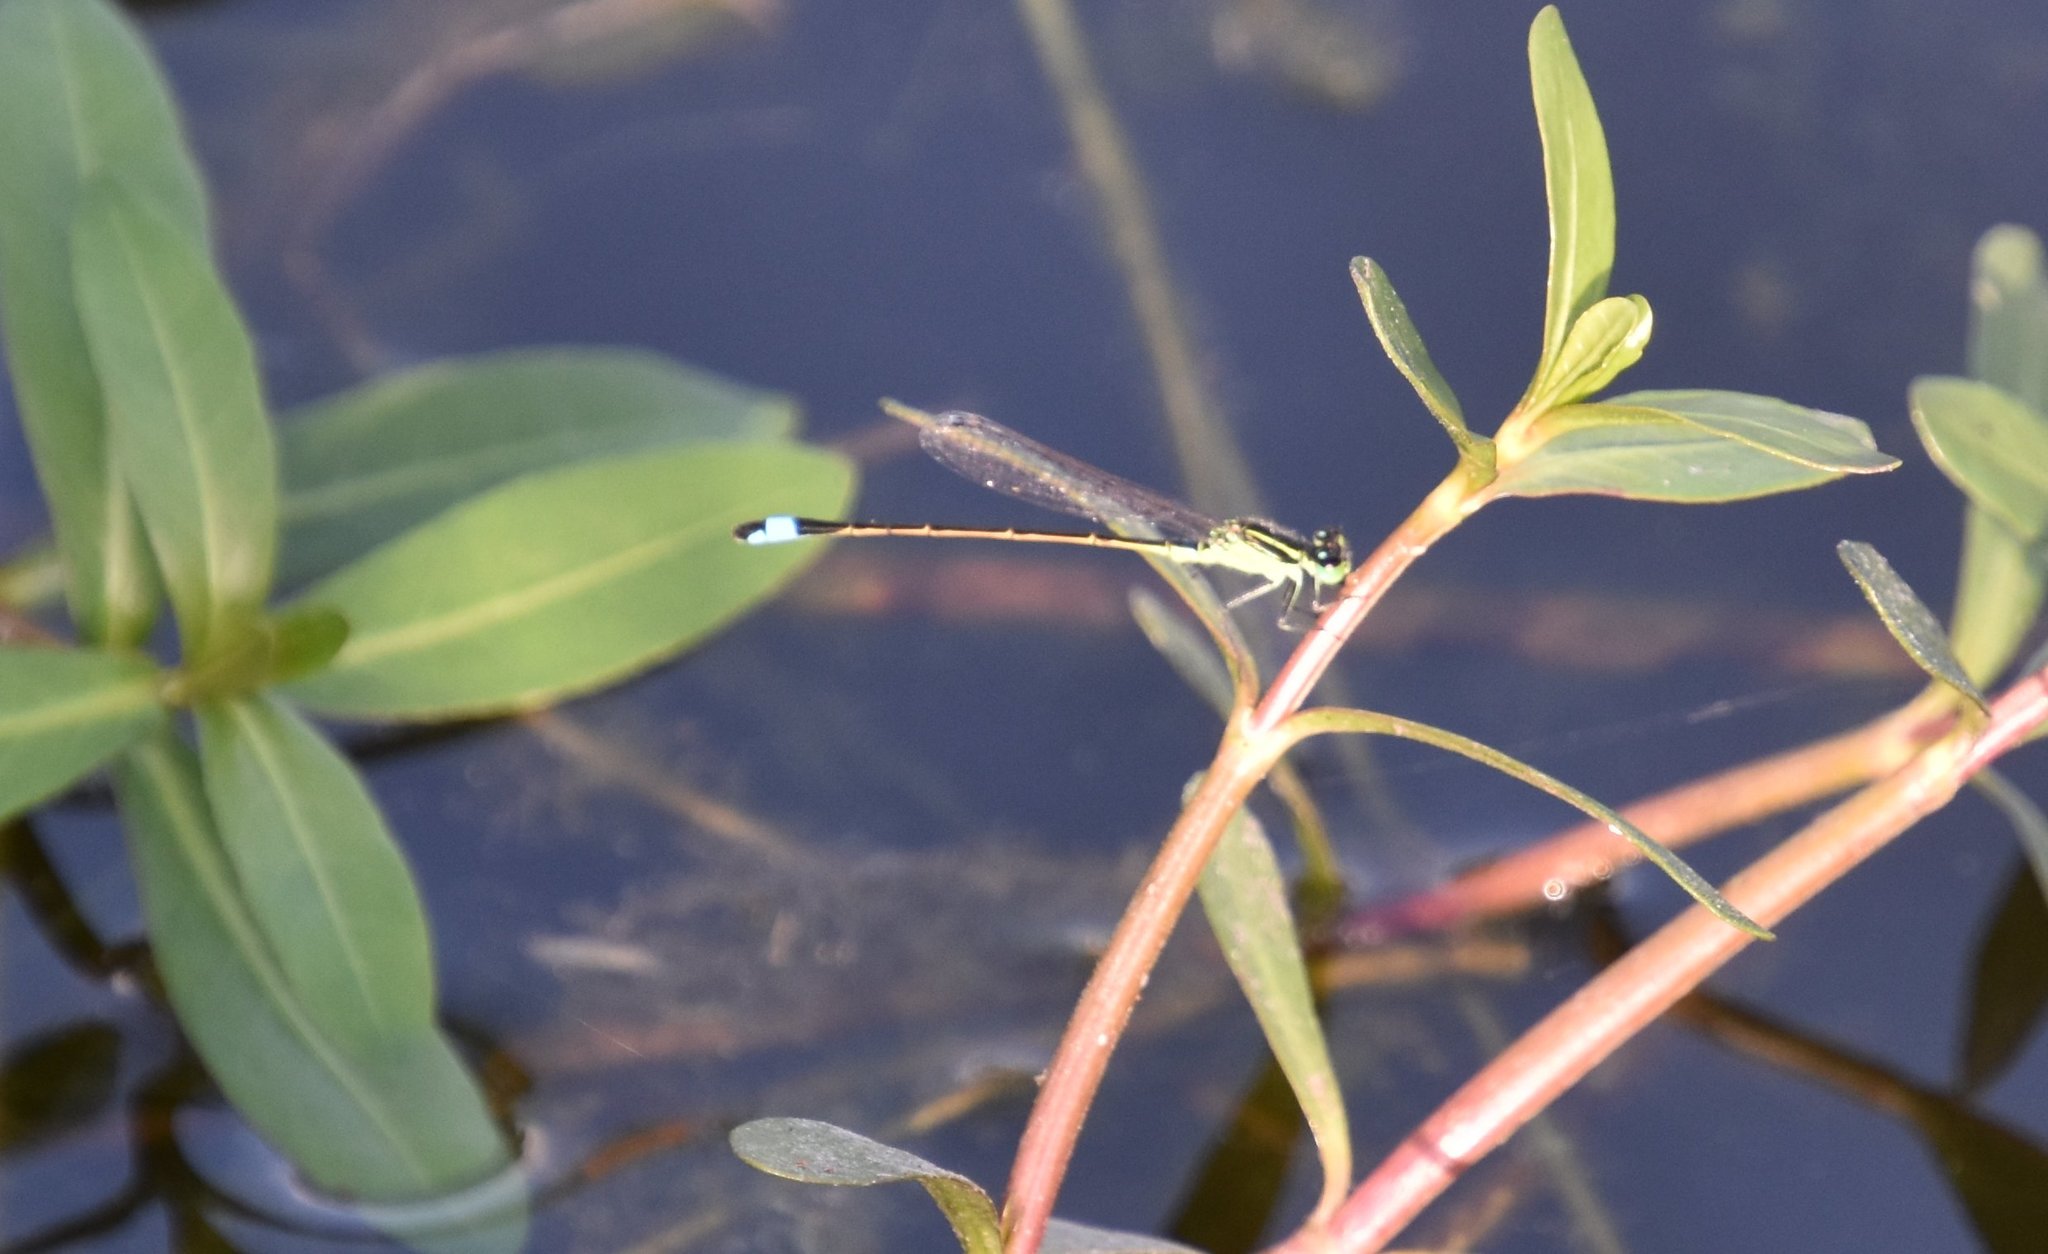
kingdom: Animalia
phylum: Arthropoda
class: Insecta
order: Odonata
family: Coenagrionidae
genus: Ischnura
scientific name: Ischnura ramburii
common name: Rambur's forktail
